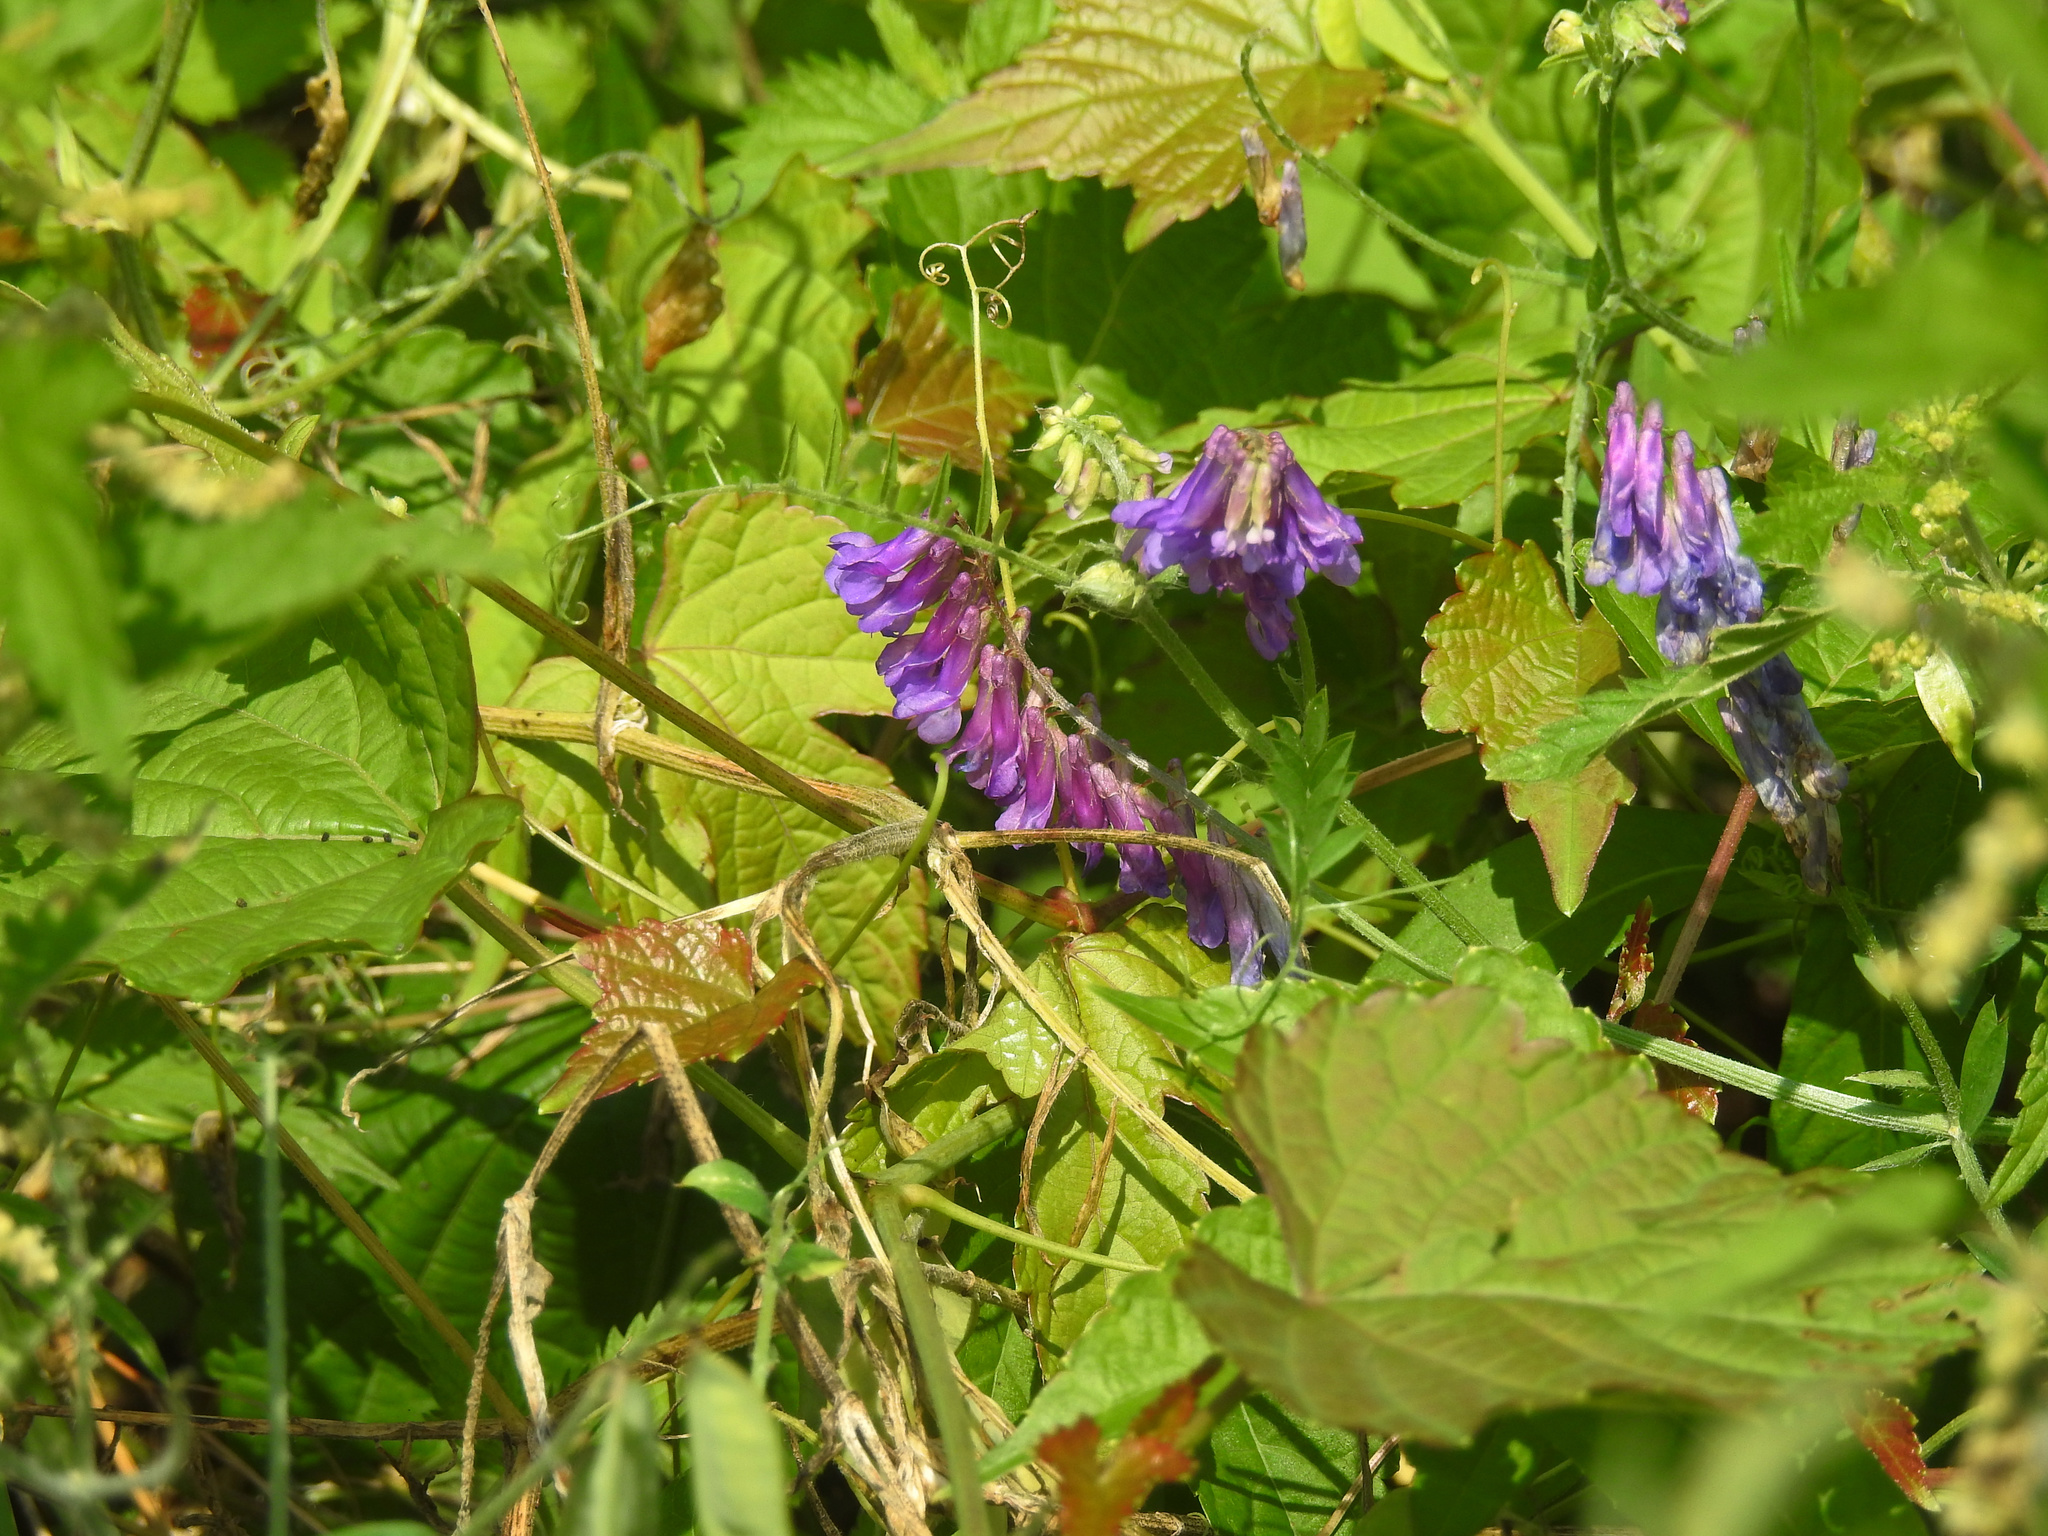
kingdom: Plantae
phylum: Tracheophyta
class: Magnoliopsida
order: Fabales
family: Fabaceae
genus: Vicia
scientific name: Vicia villosa
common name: Fodder vetch
